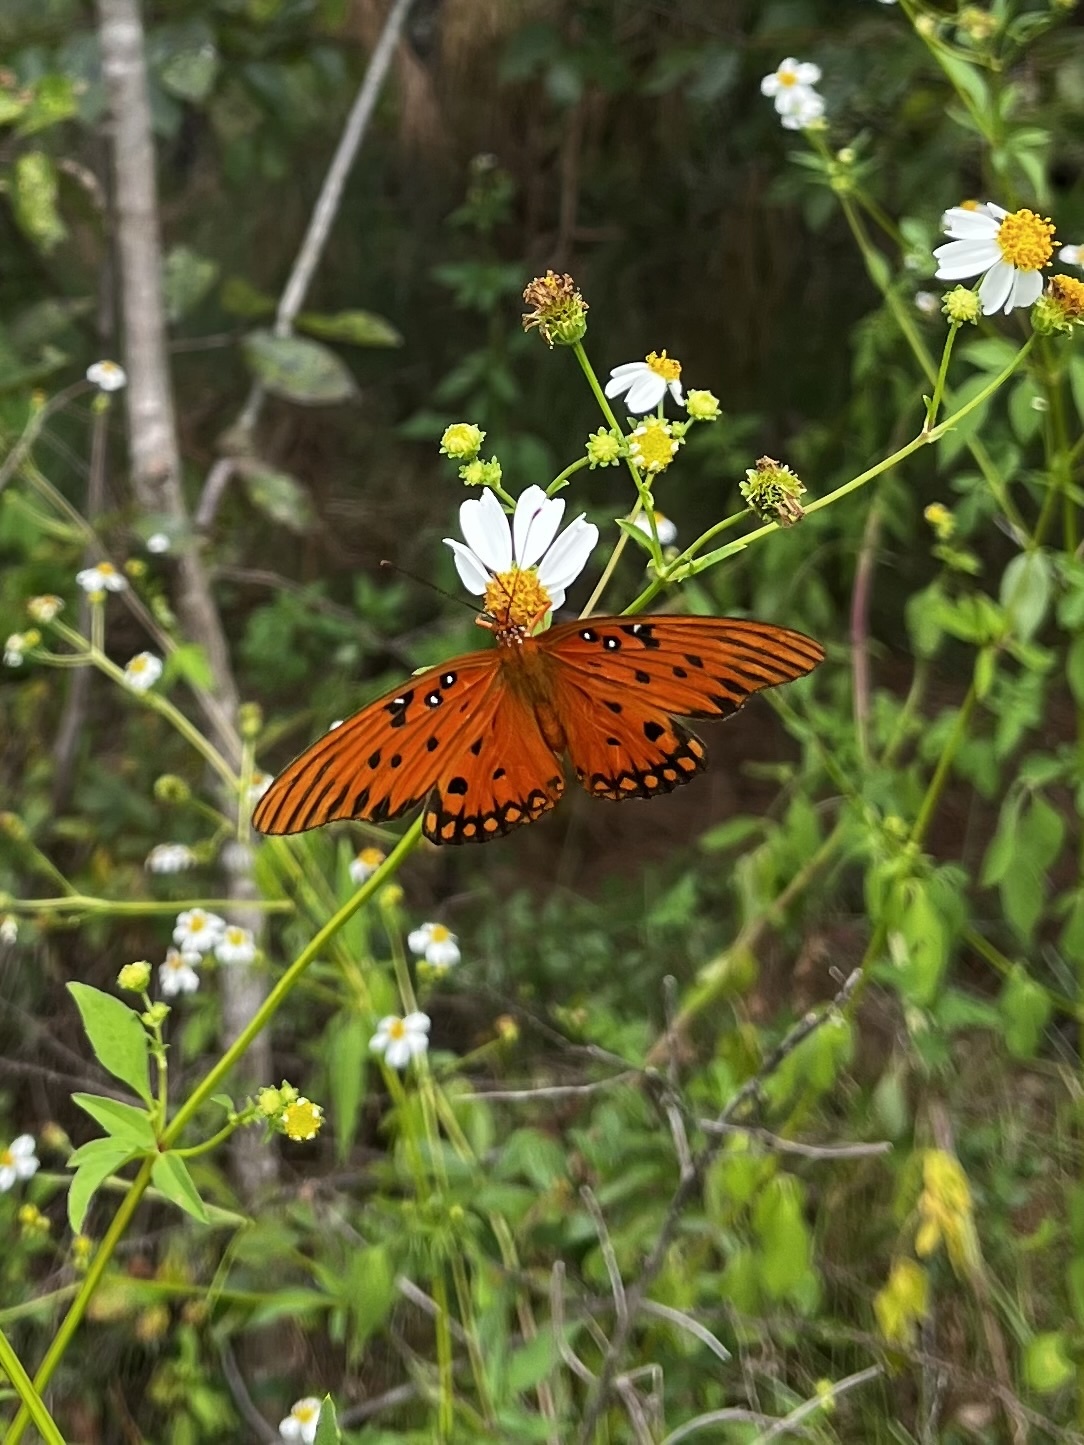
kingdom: Animalia
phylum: Arthropoda
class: Insecta
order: Lepidoptera
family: Nymphalidae
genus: Dione
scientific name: Dione vanillae
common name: Gulf fritillary
